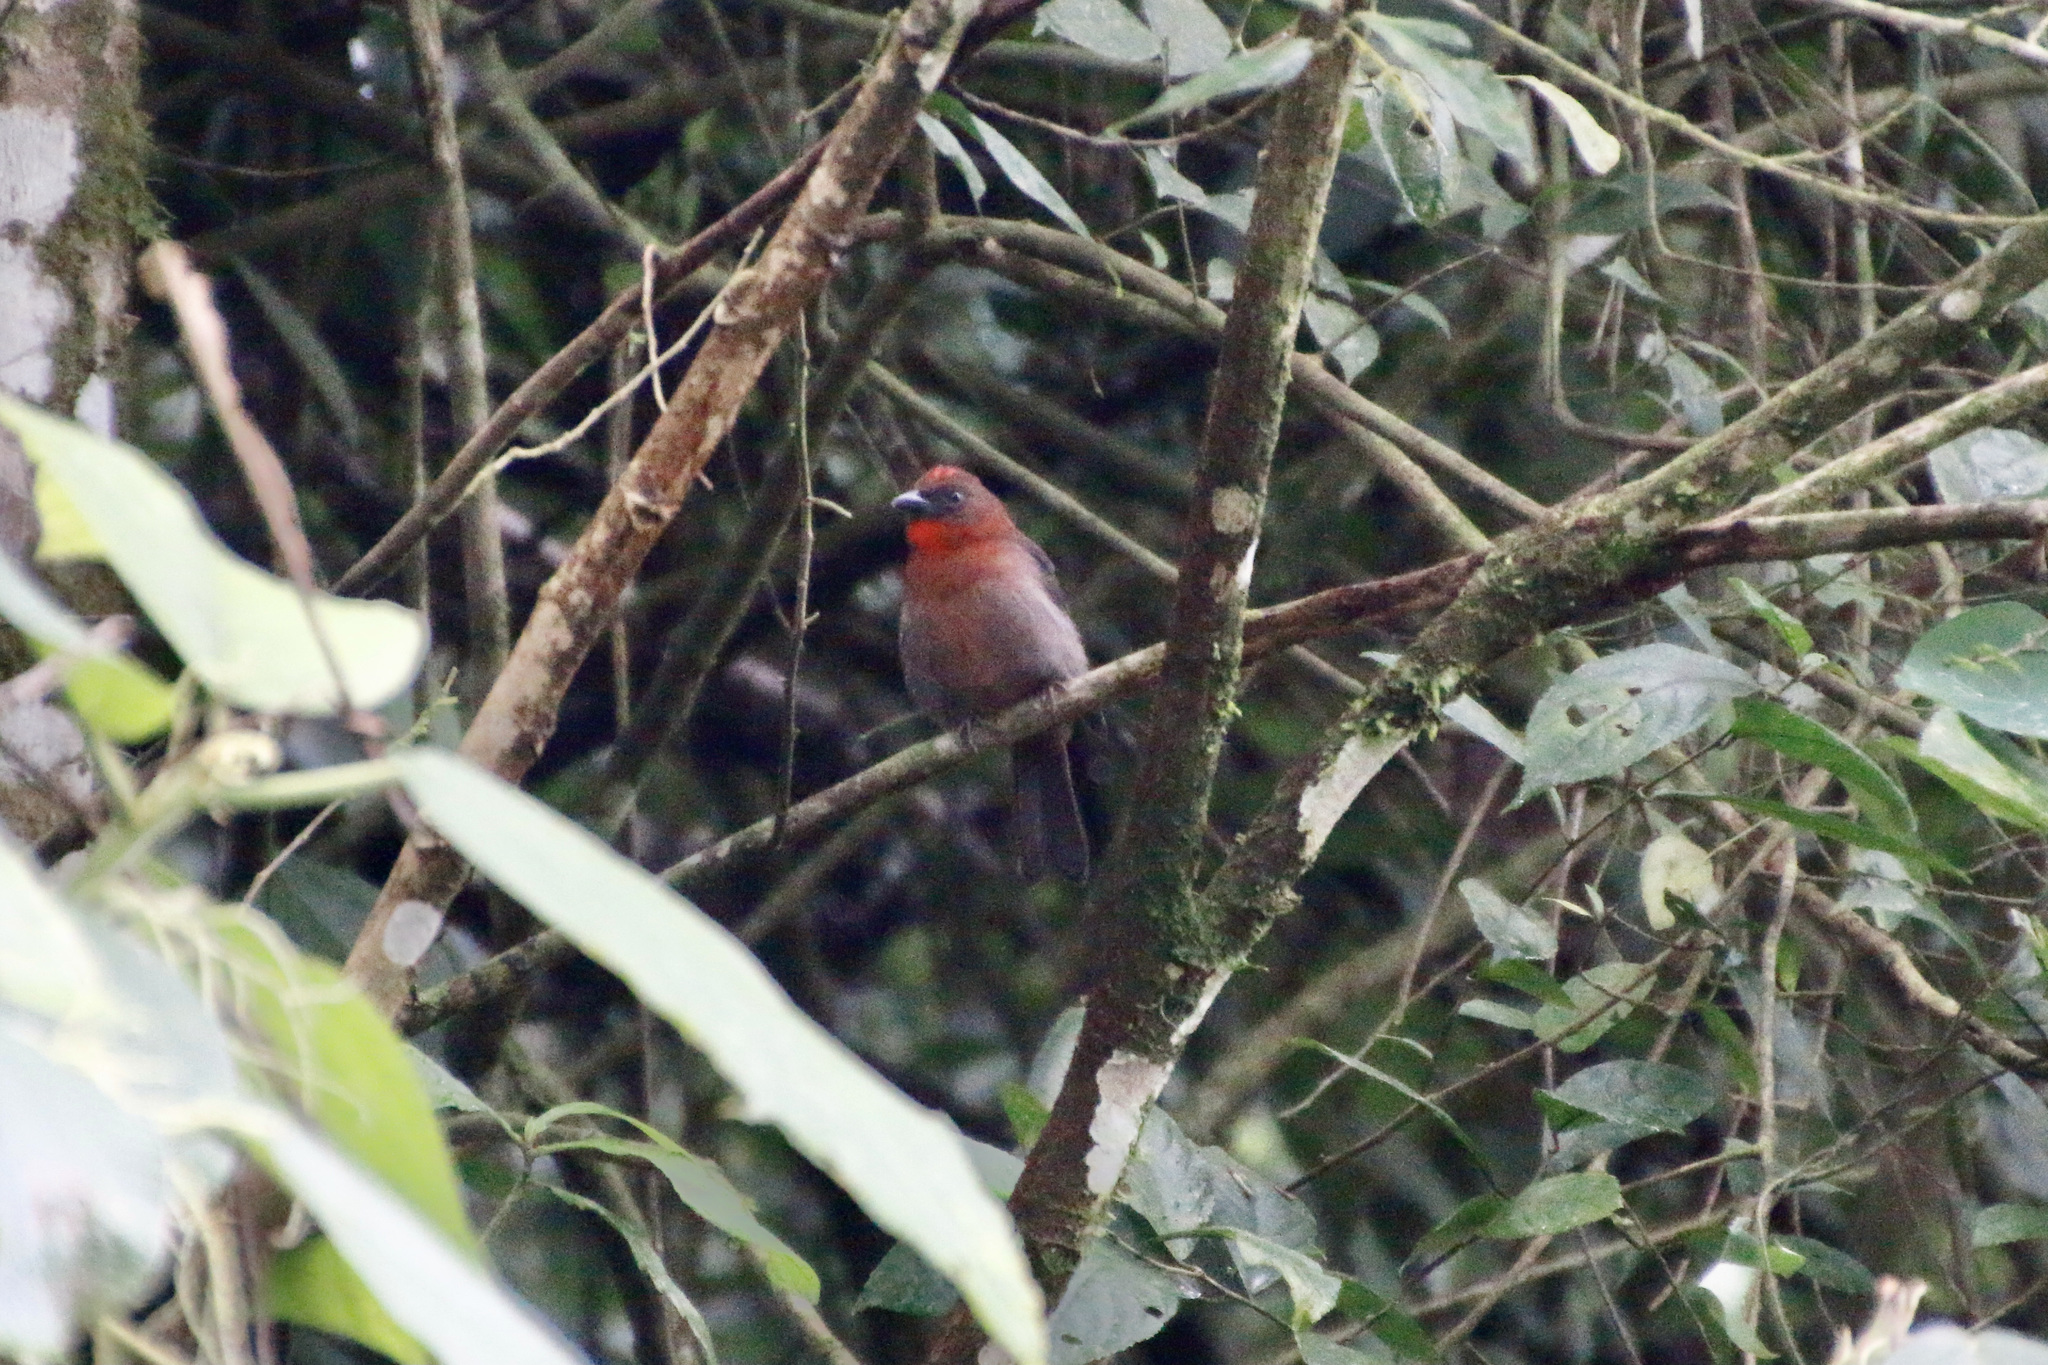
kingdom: Animalia
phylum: Chordata
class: Aves
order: Passeriformes
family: Cardinalidae
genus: Habia
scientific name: Habia fuscicauda
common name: Red-throated ant-tanager
